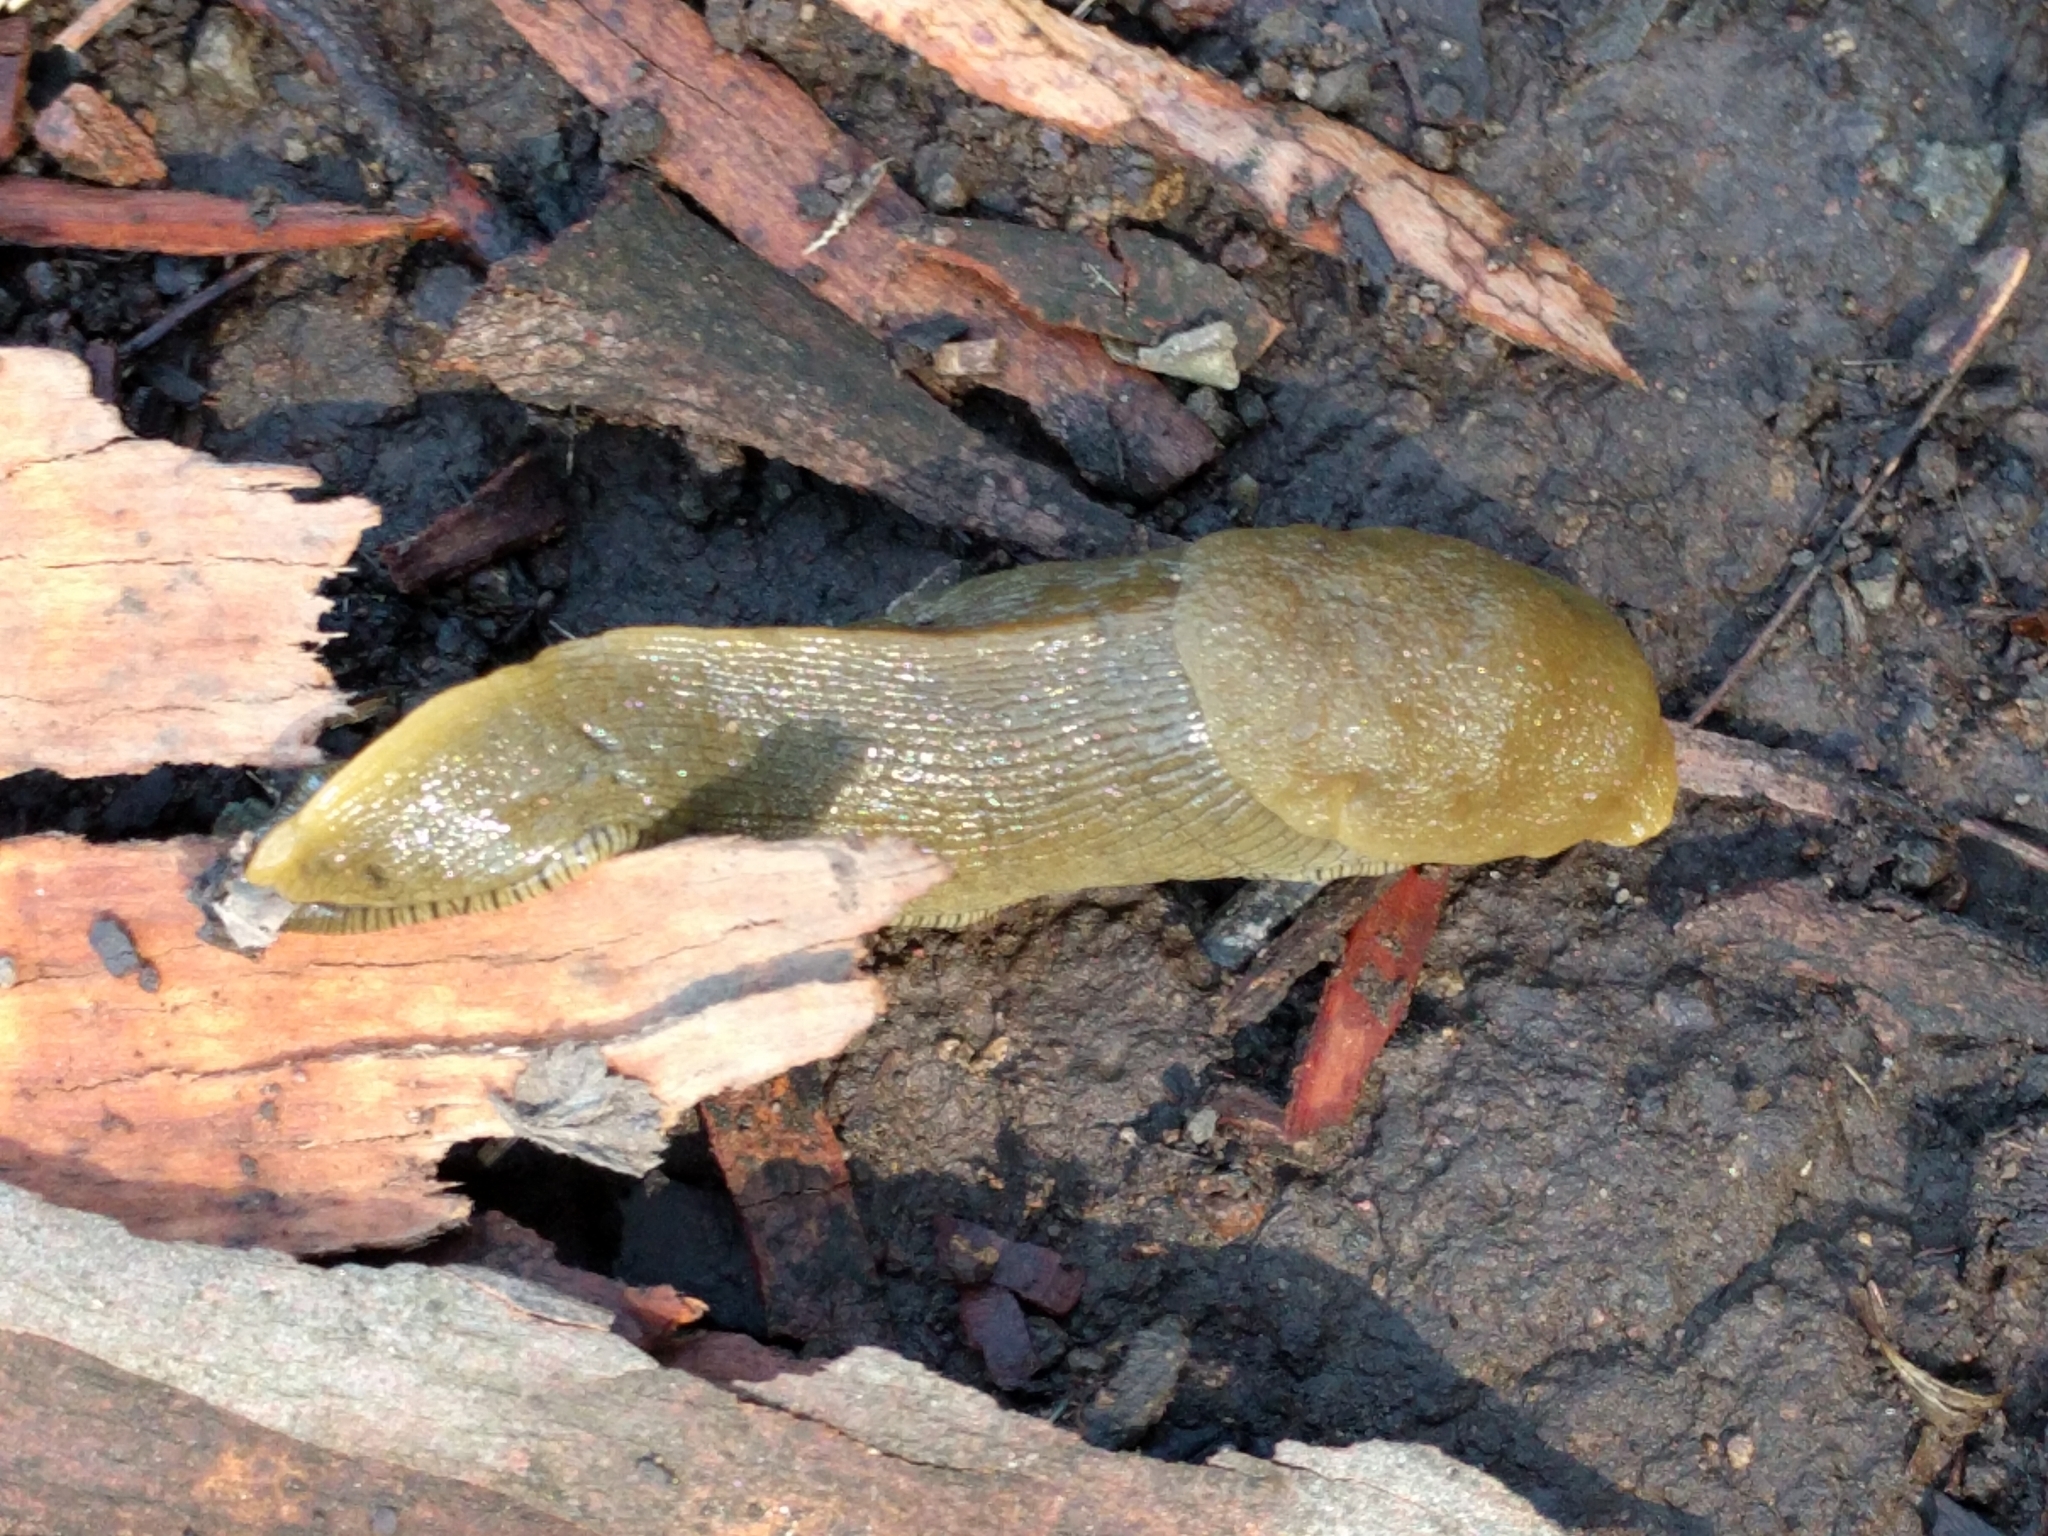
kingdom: Animalia
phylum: Mollusca
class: Gastropoda
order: Stylommatophora
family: Ariolimacidae
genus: Ariolimax
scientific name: Ariolimax
